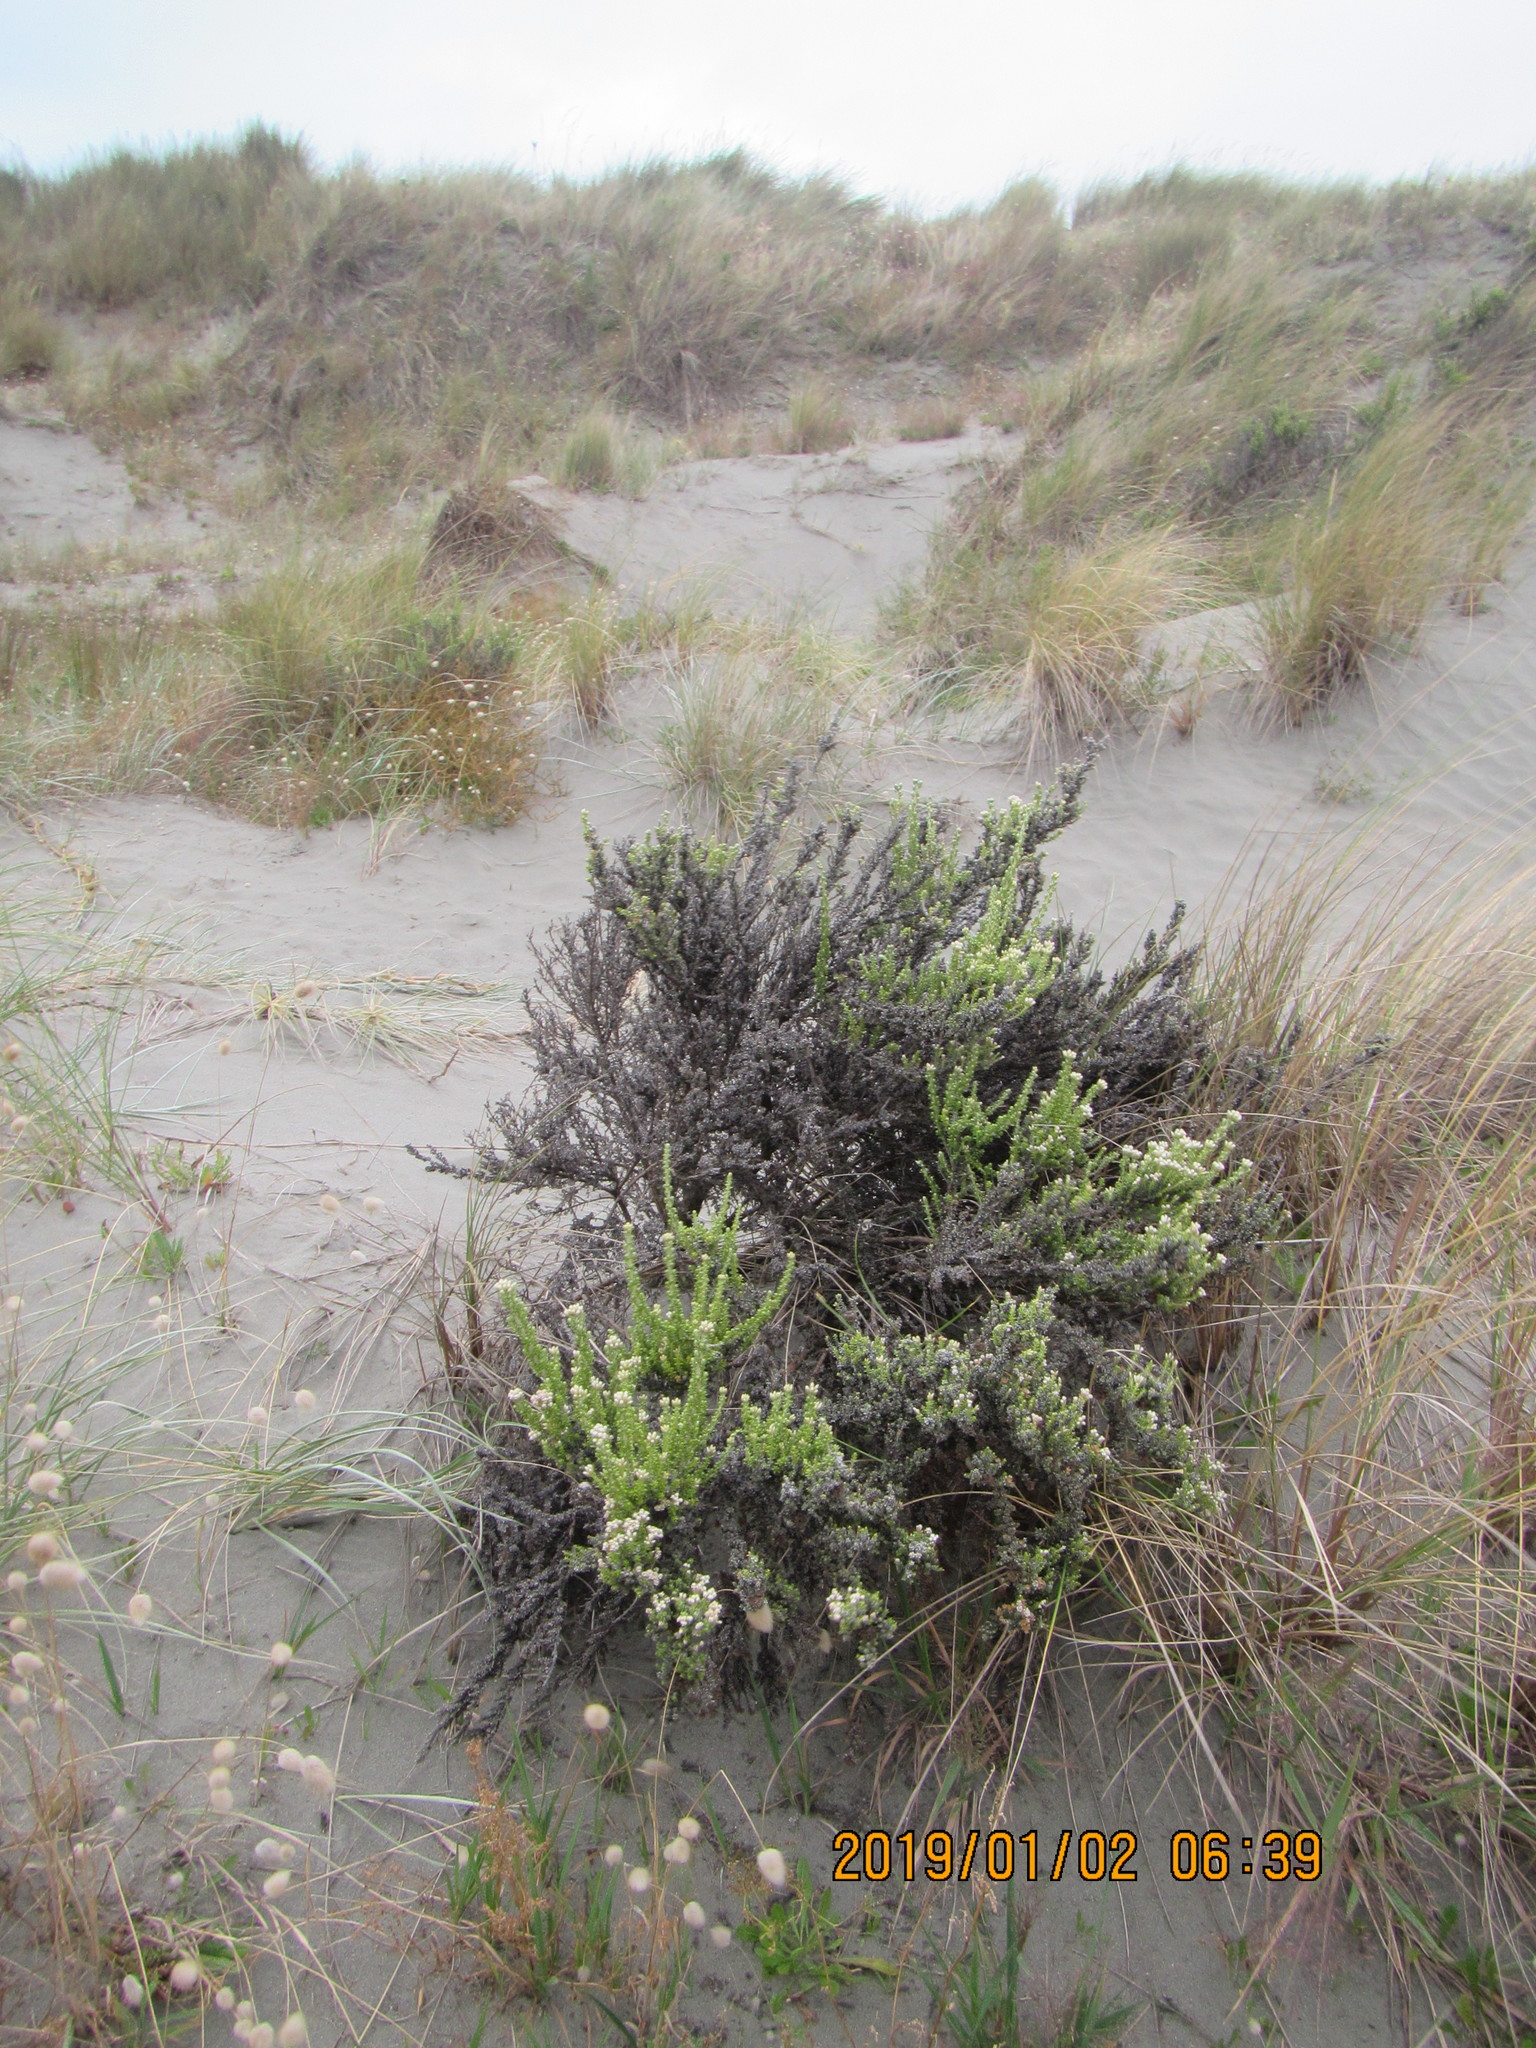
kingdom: Plantae
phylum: Tracheophyta
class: Magnoliopsida
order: Asterales
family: Asteraceae
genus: Ozothamnus
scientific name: Ozothamnus leptophyllus
